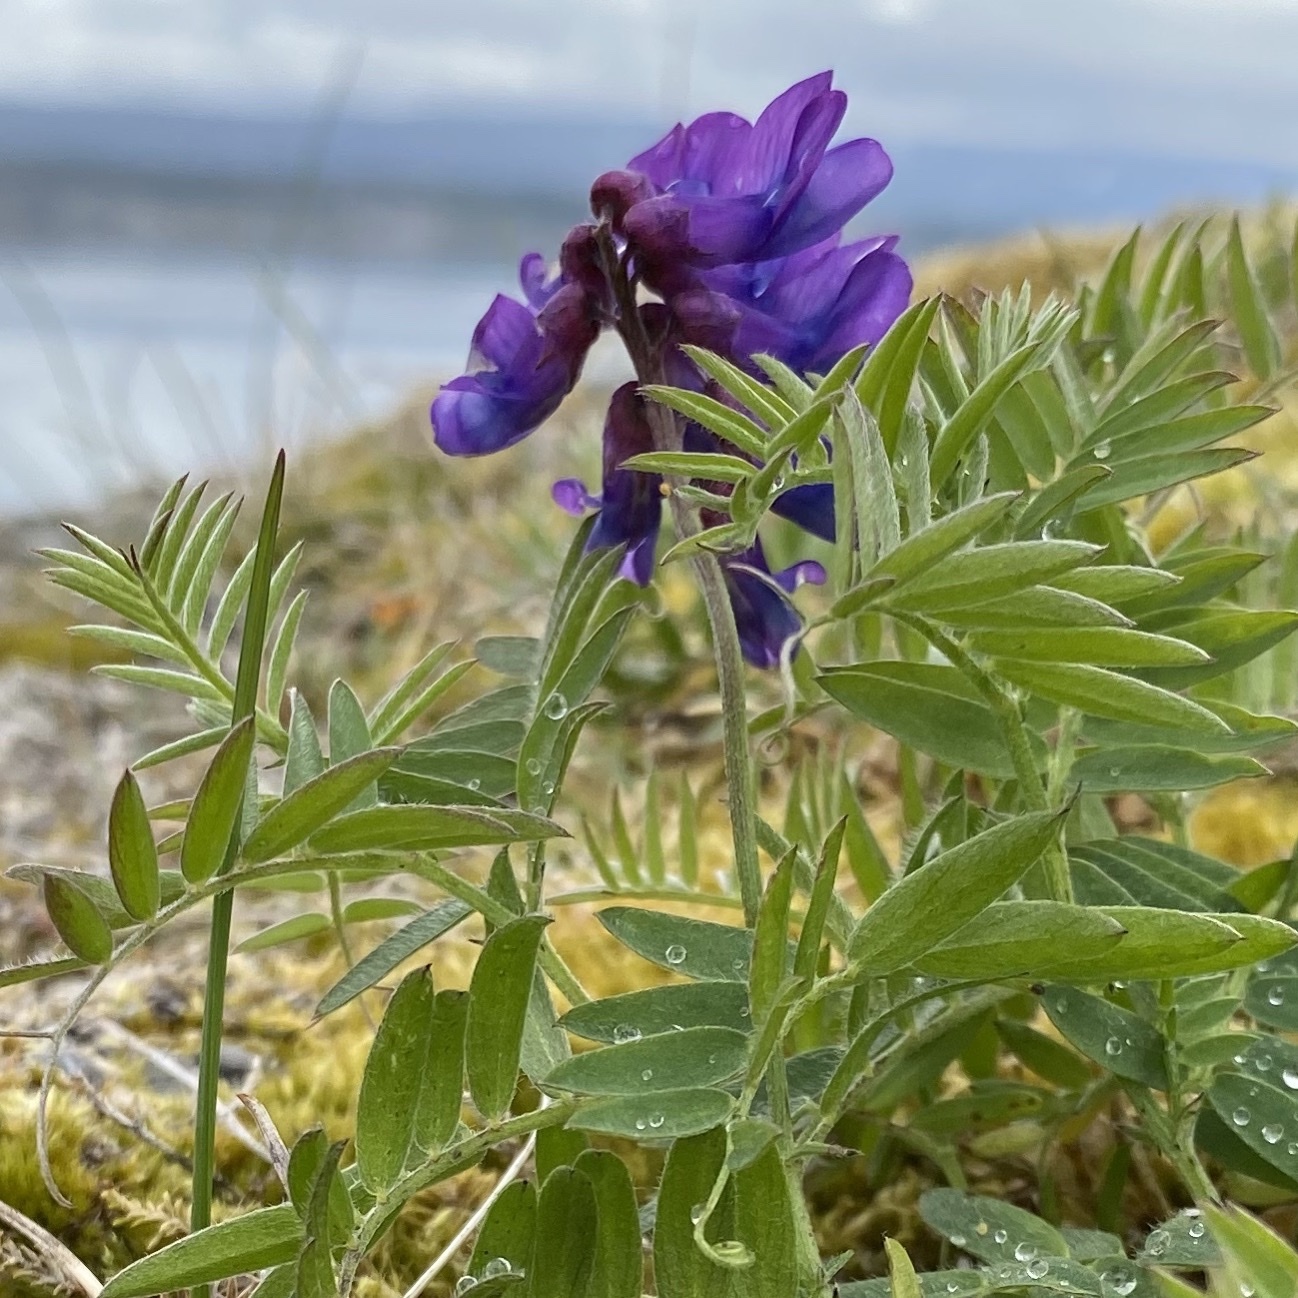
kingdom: Plantae
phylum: Tracheophyta
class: Magnoliopsida
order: Fabales
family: Fabaceae
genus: Vicia
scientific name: Vicia cracca
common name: Bird vetch
